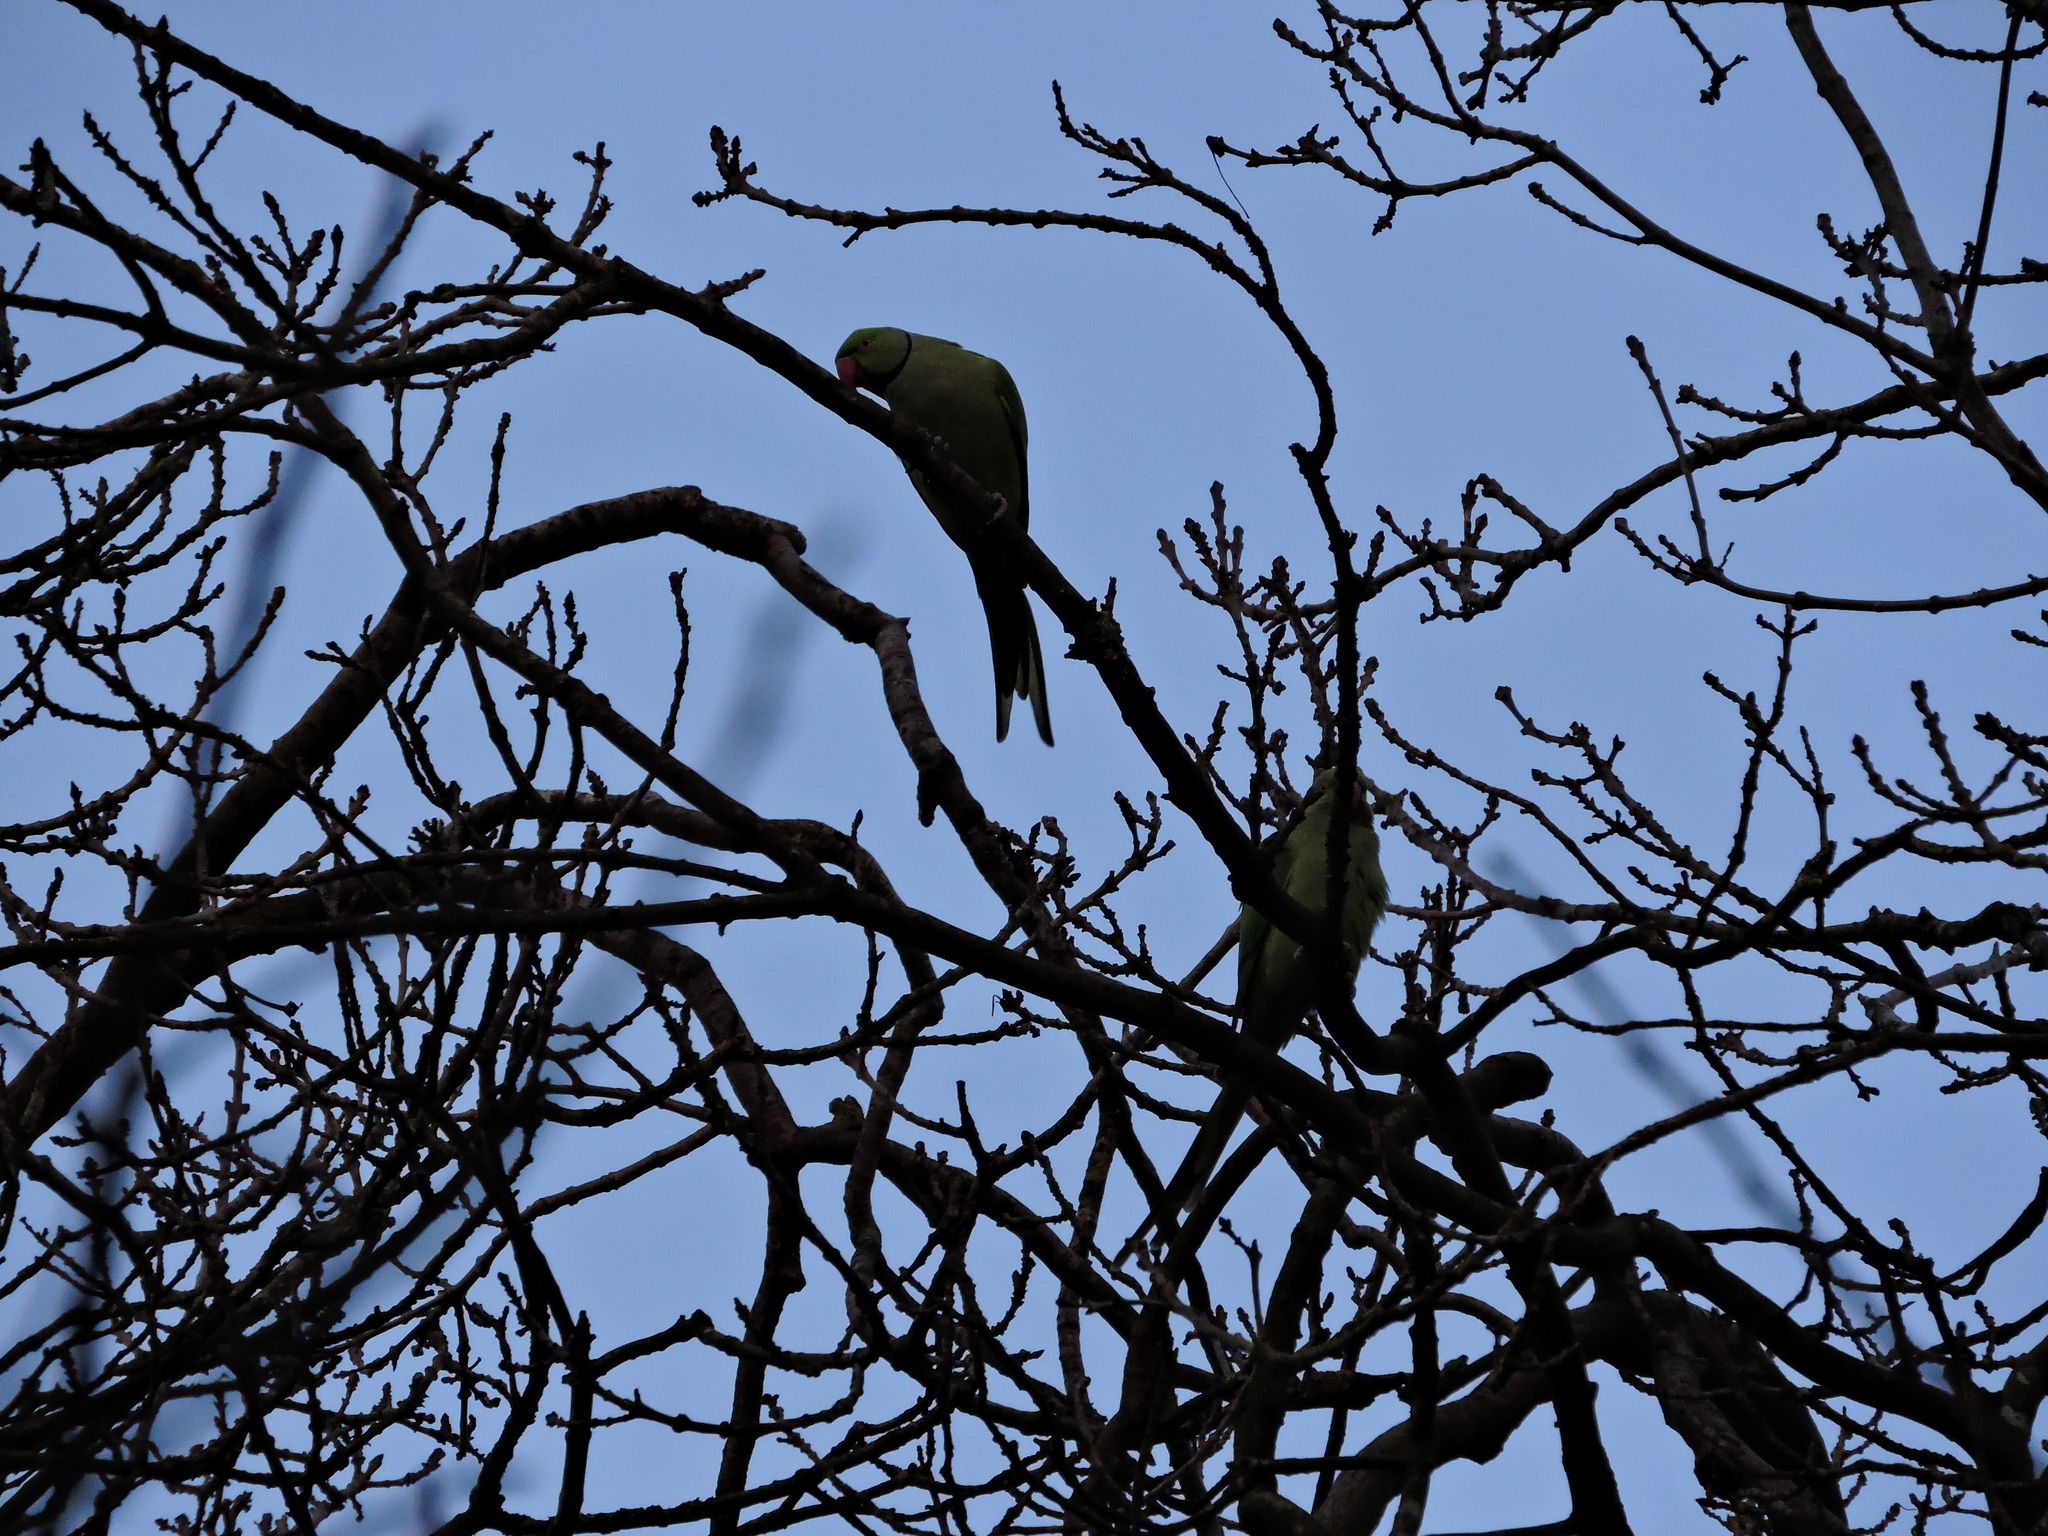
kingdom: Animalia
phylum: Chordata
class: Aves
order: Psittaciformes
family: Psittacidae
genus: Psittacula
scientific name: Psittacula krameri
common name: Rose-ringed parakeet
